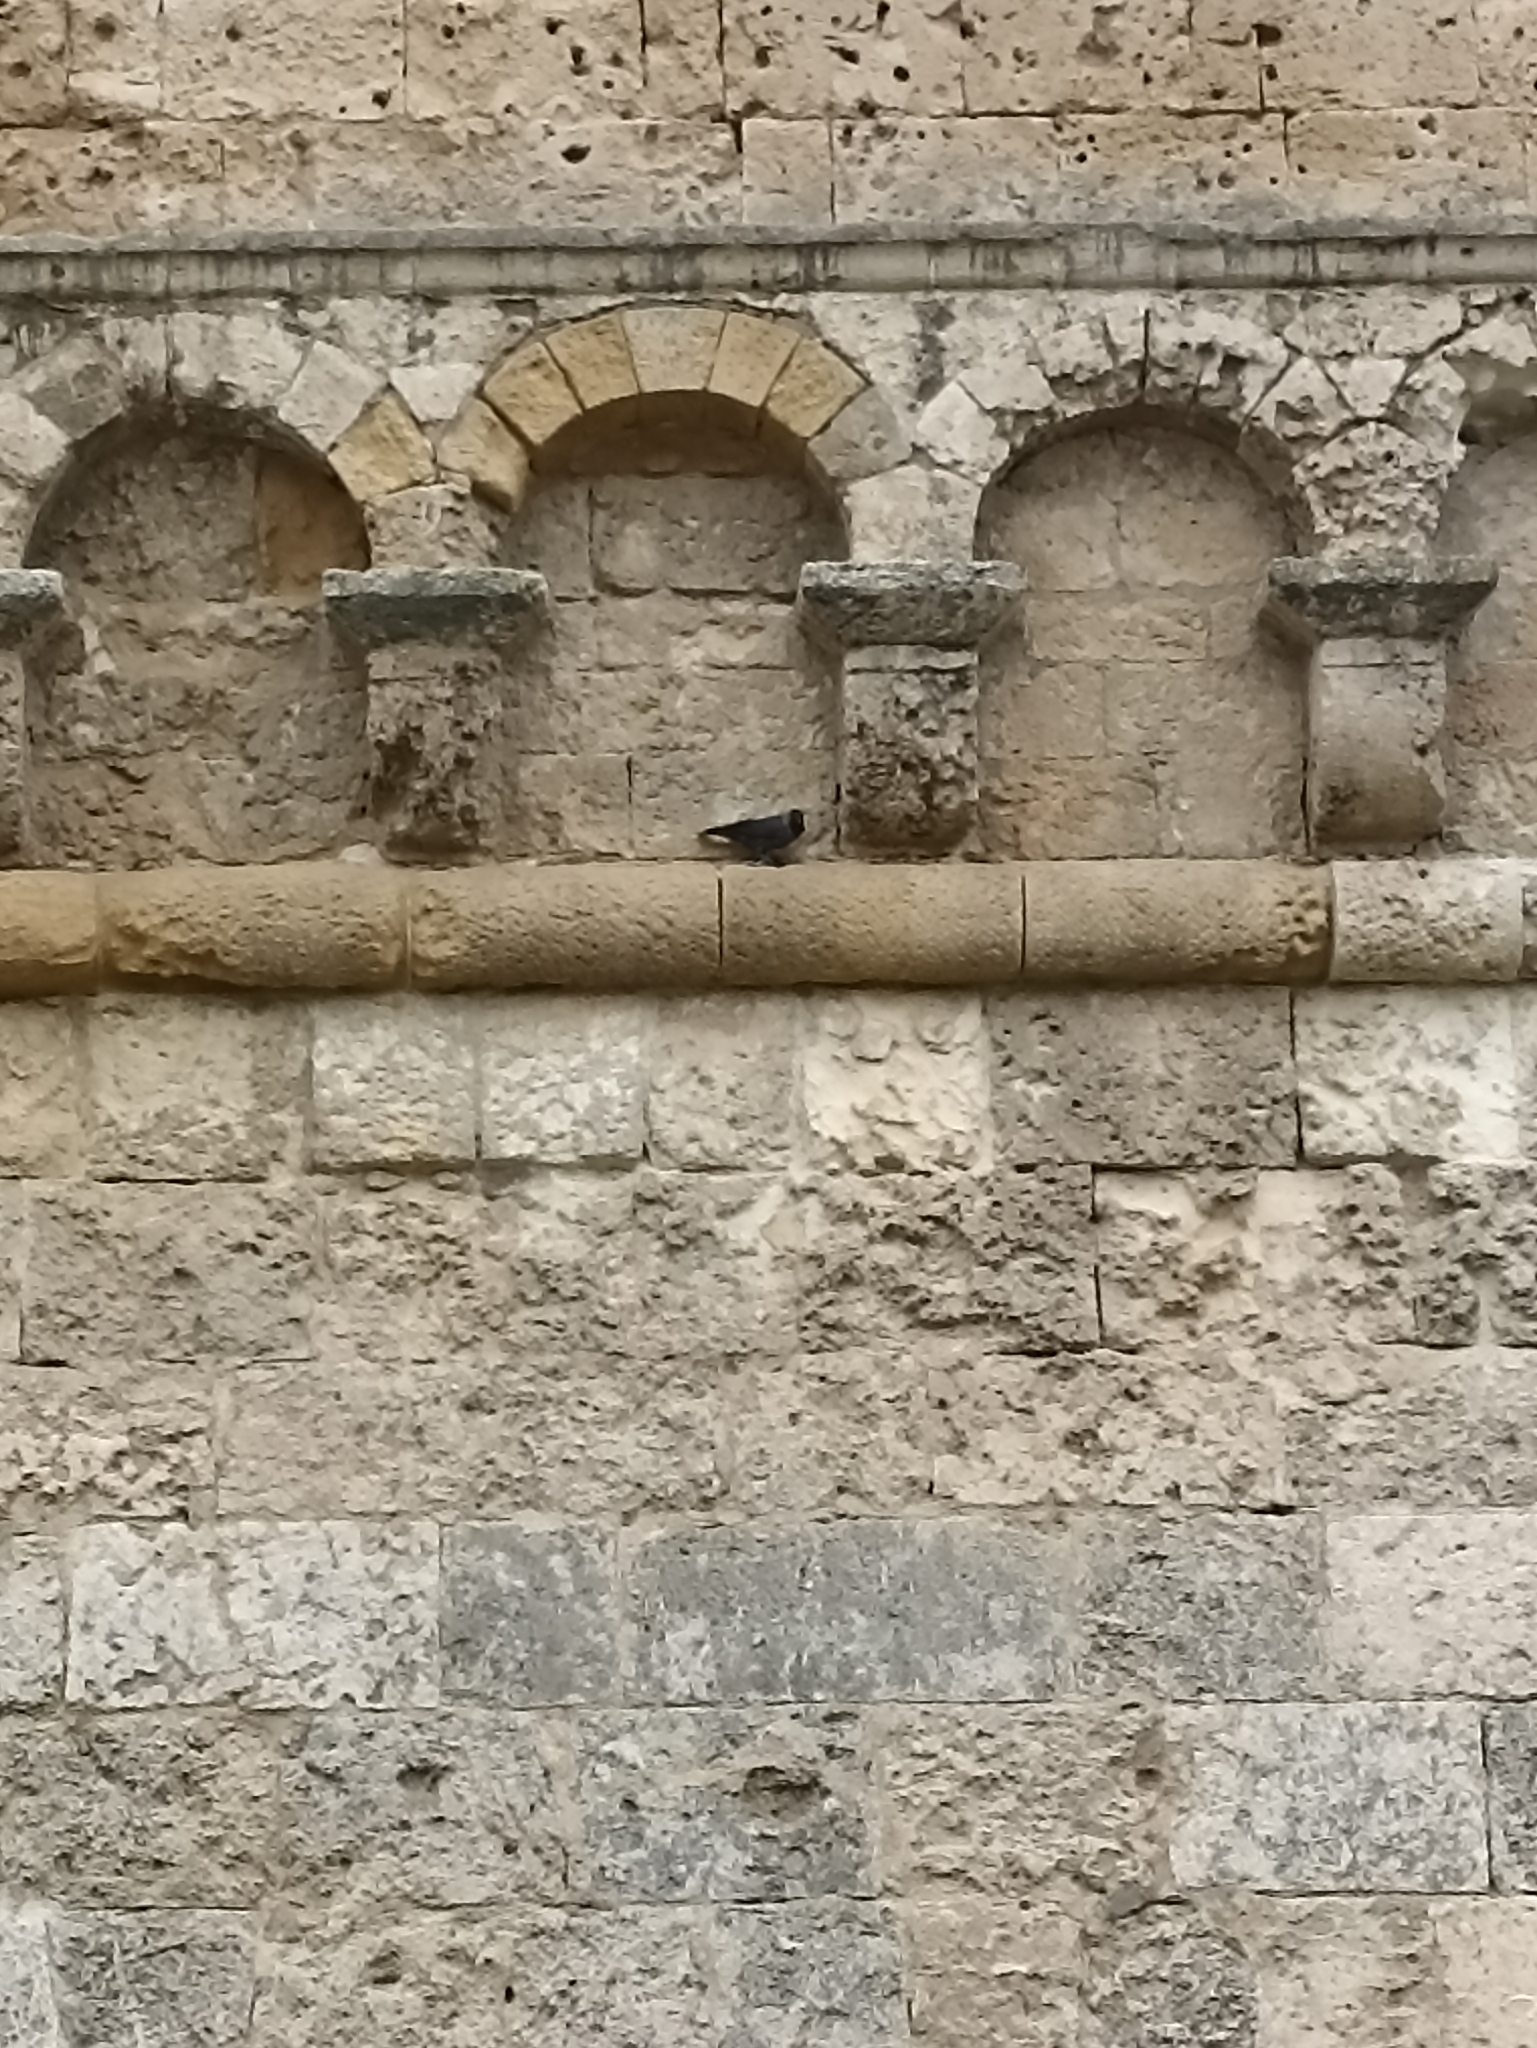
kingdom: Animalia
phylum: Chordata
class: Aves
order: Passeriformes
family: Corvidae
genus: Coloeus
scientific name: Coloeus monedula
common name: Western jackdaw
